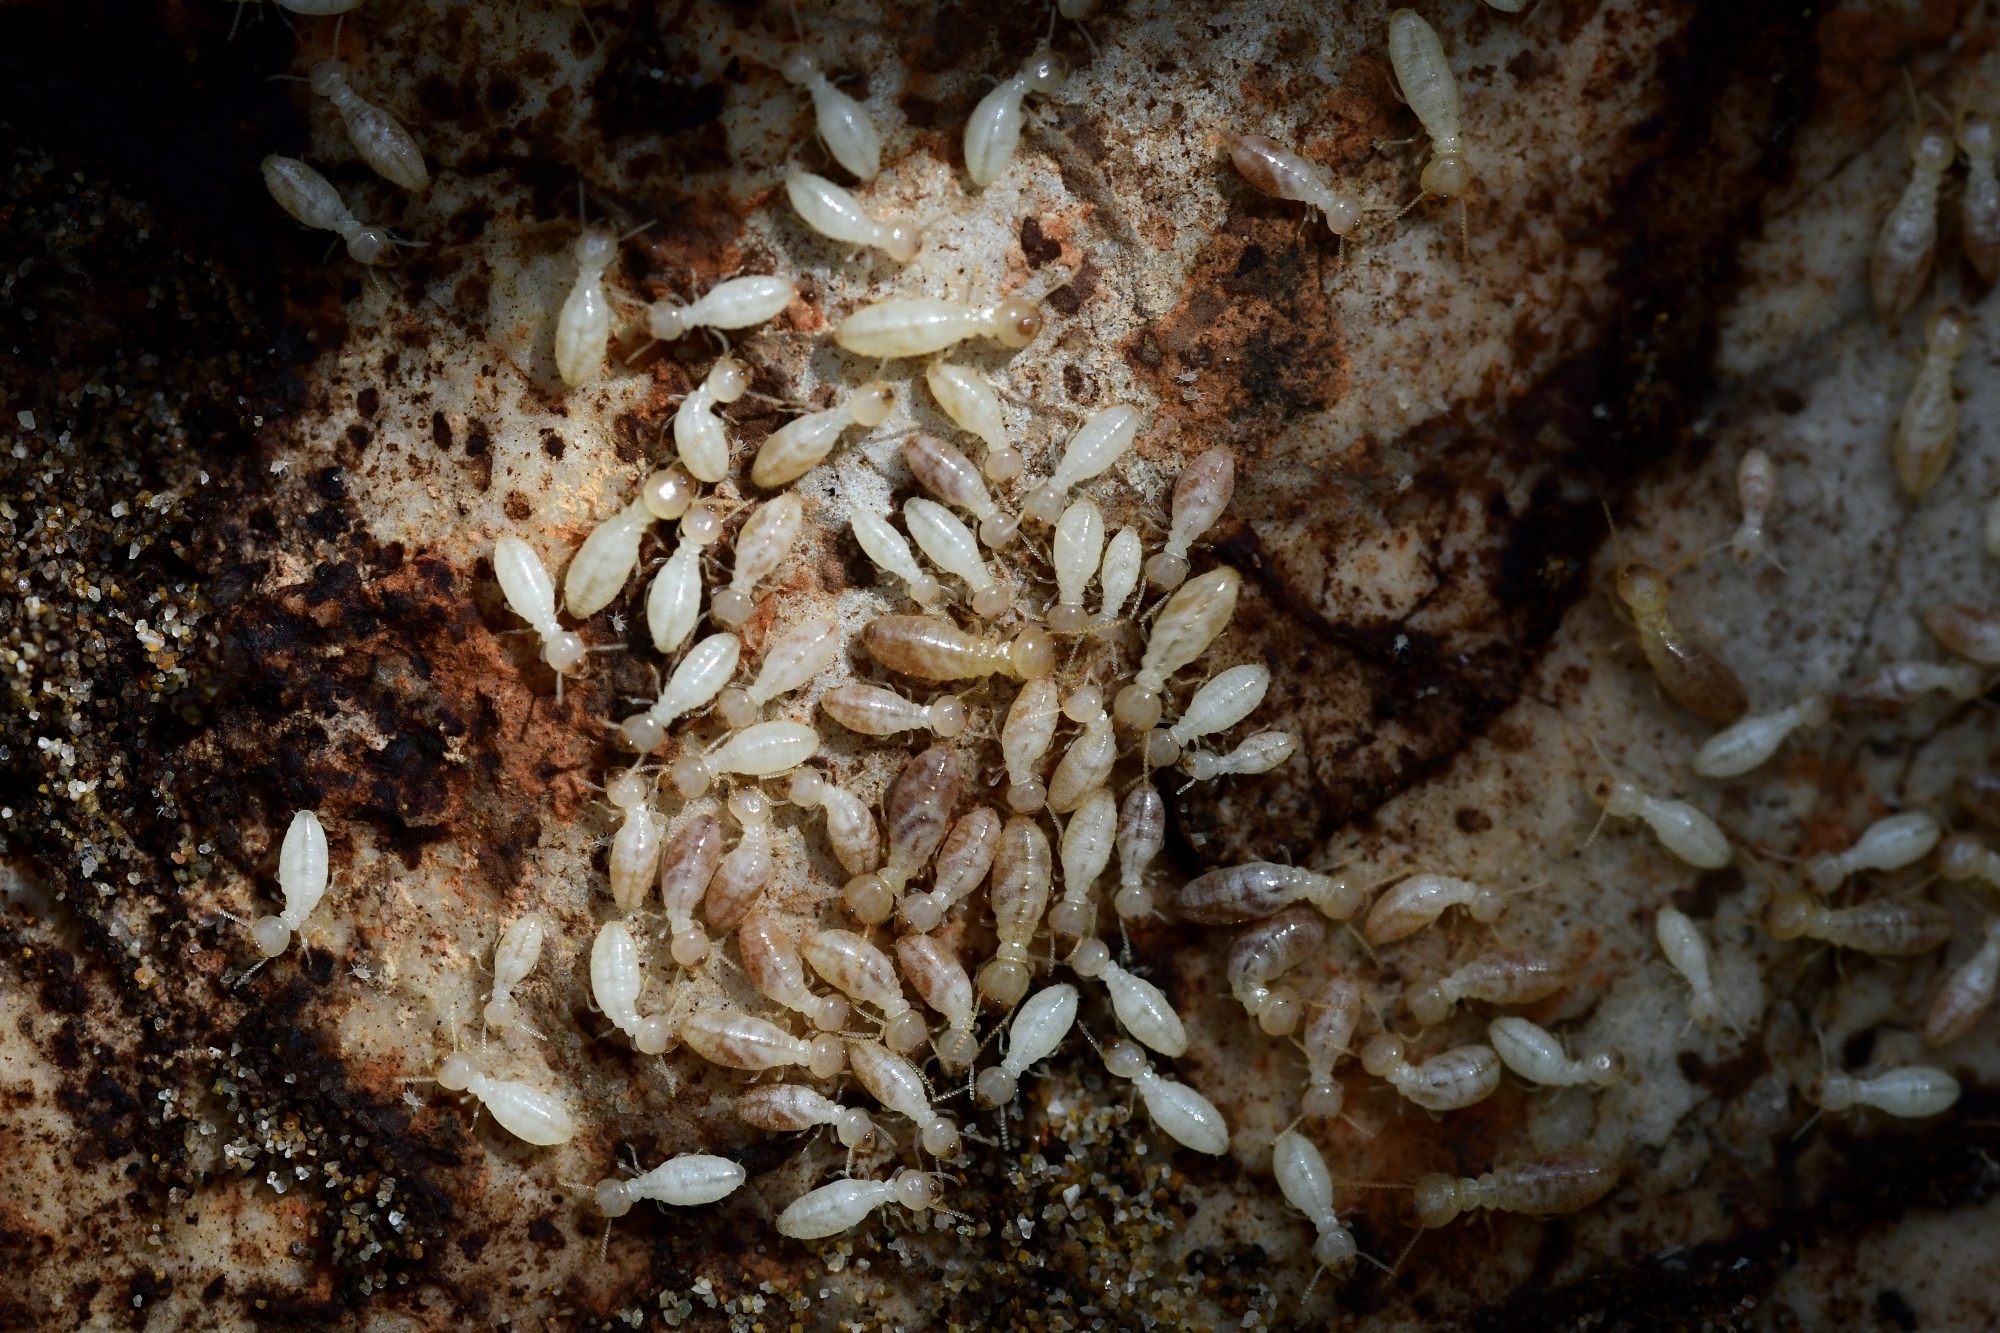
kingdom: Animalia
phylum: Arthropoda
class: Insecta
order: Blattodea
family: Rhinotermitidae
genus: Reticulitermes
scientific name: Reticulitermes urbis
